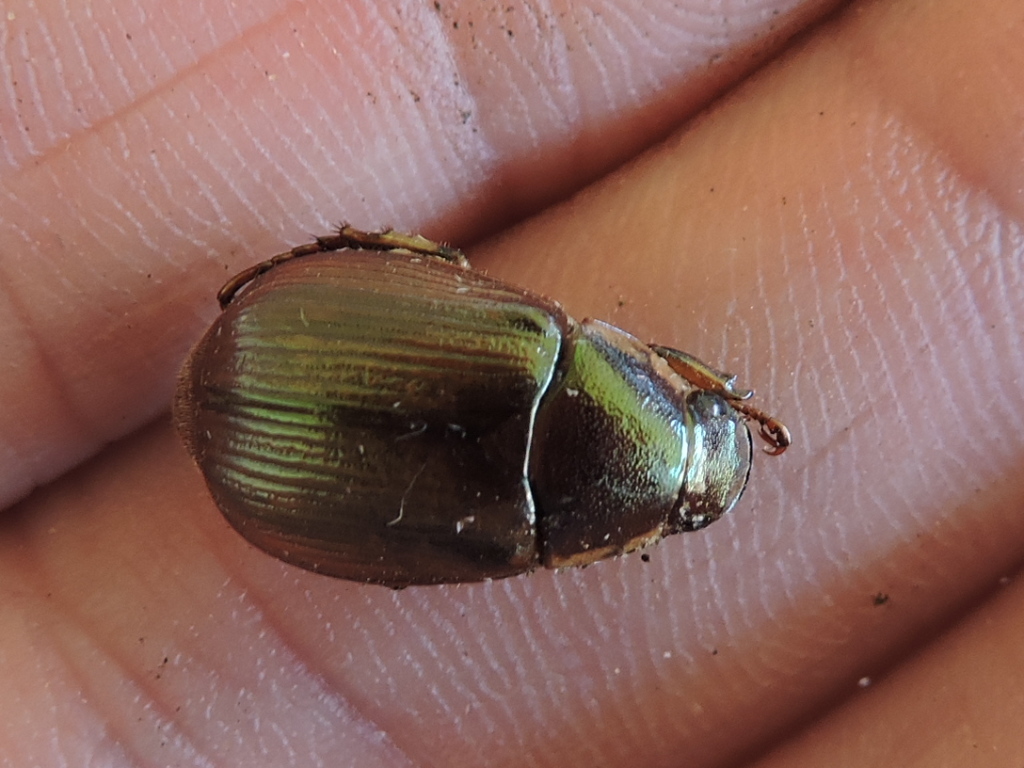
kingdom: Animalia
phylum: Arthropoda
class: Insecta
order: Coleoptera
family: Scarabaeidae
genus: Callistethus
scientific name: Callistethus marginatus
